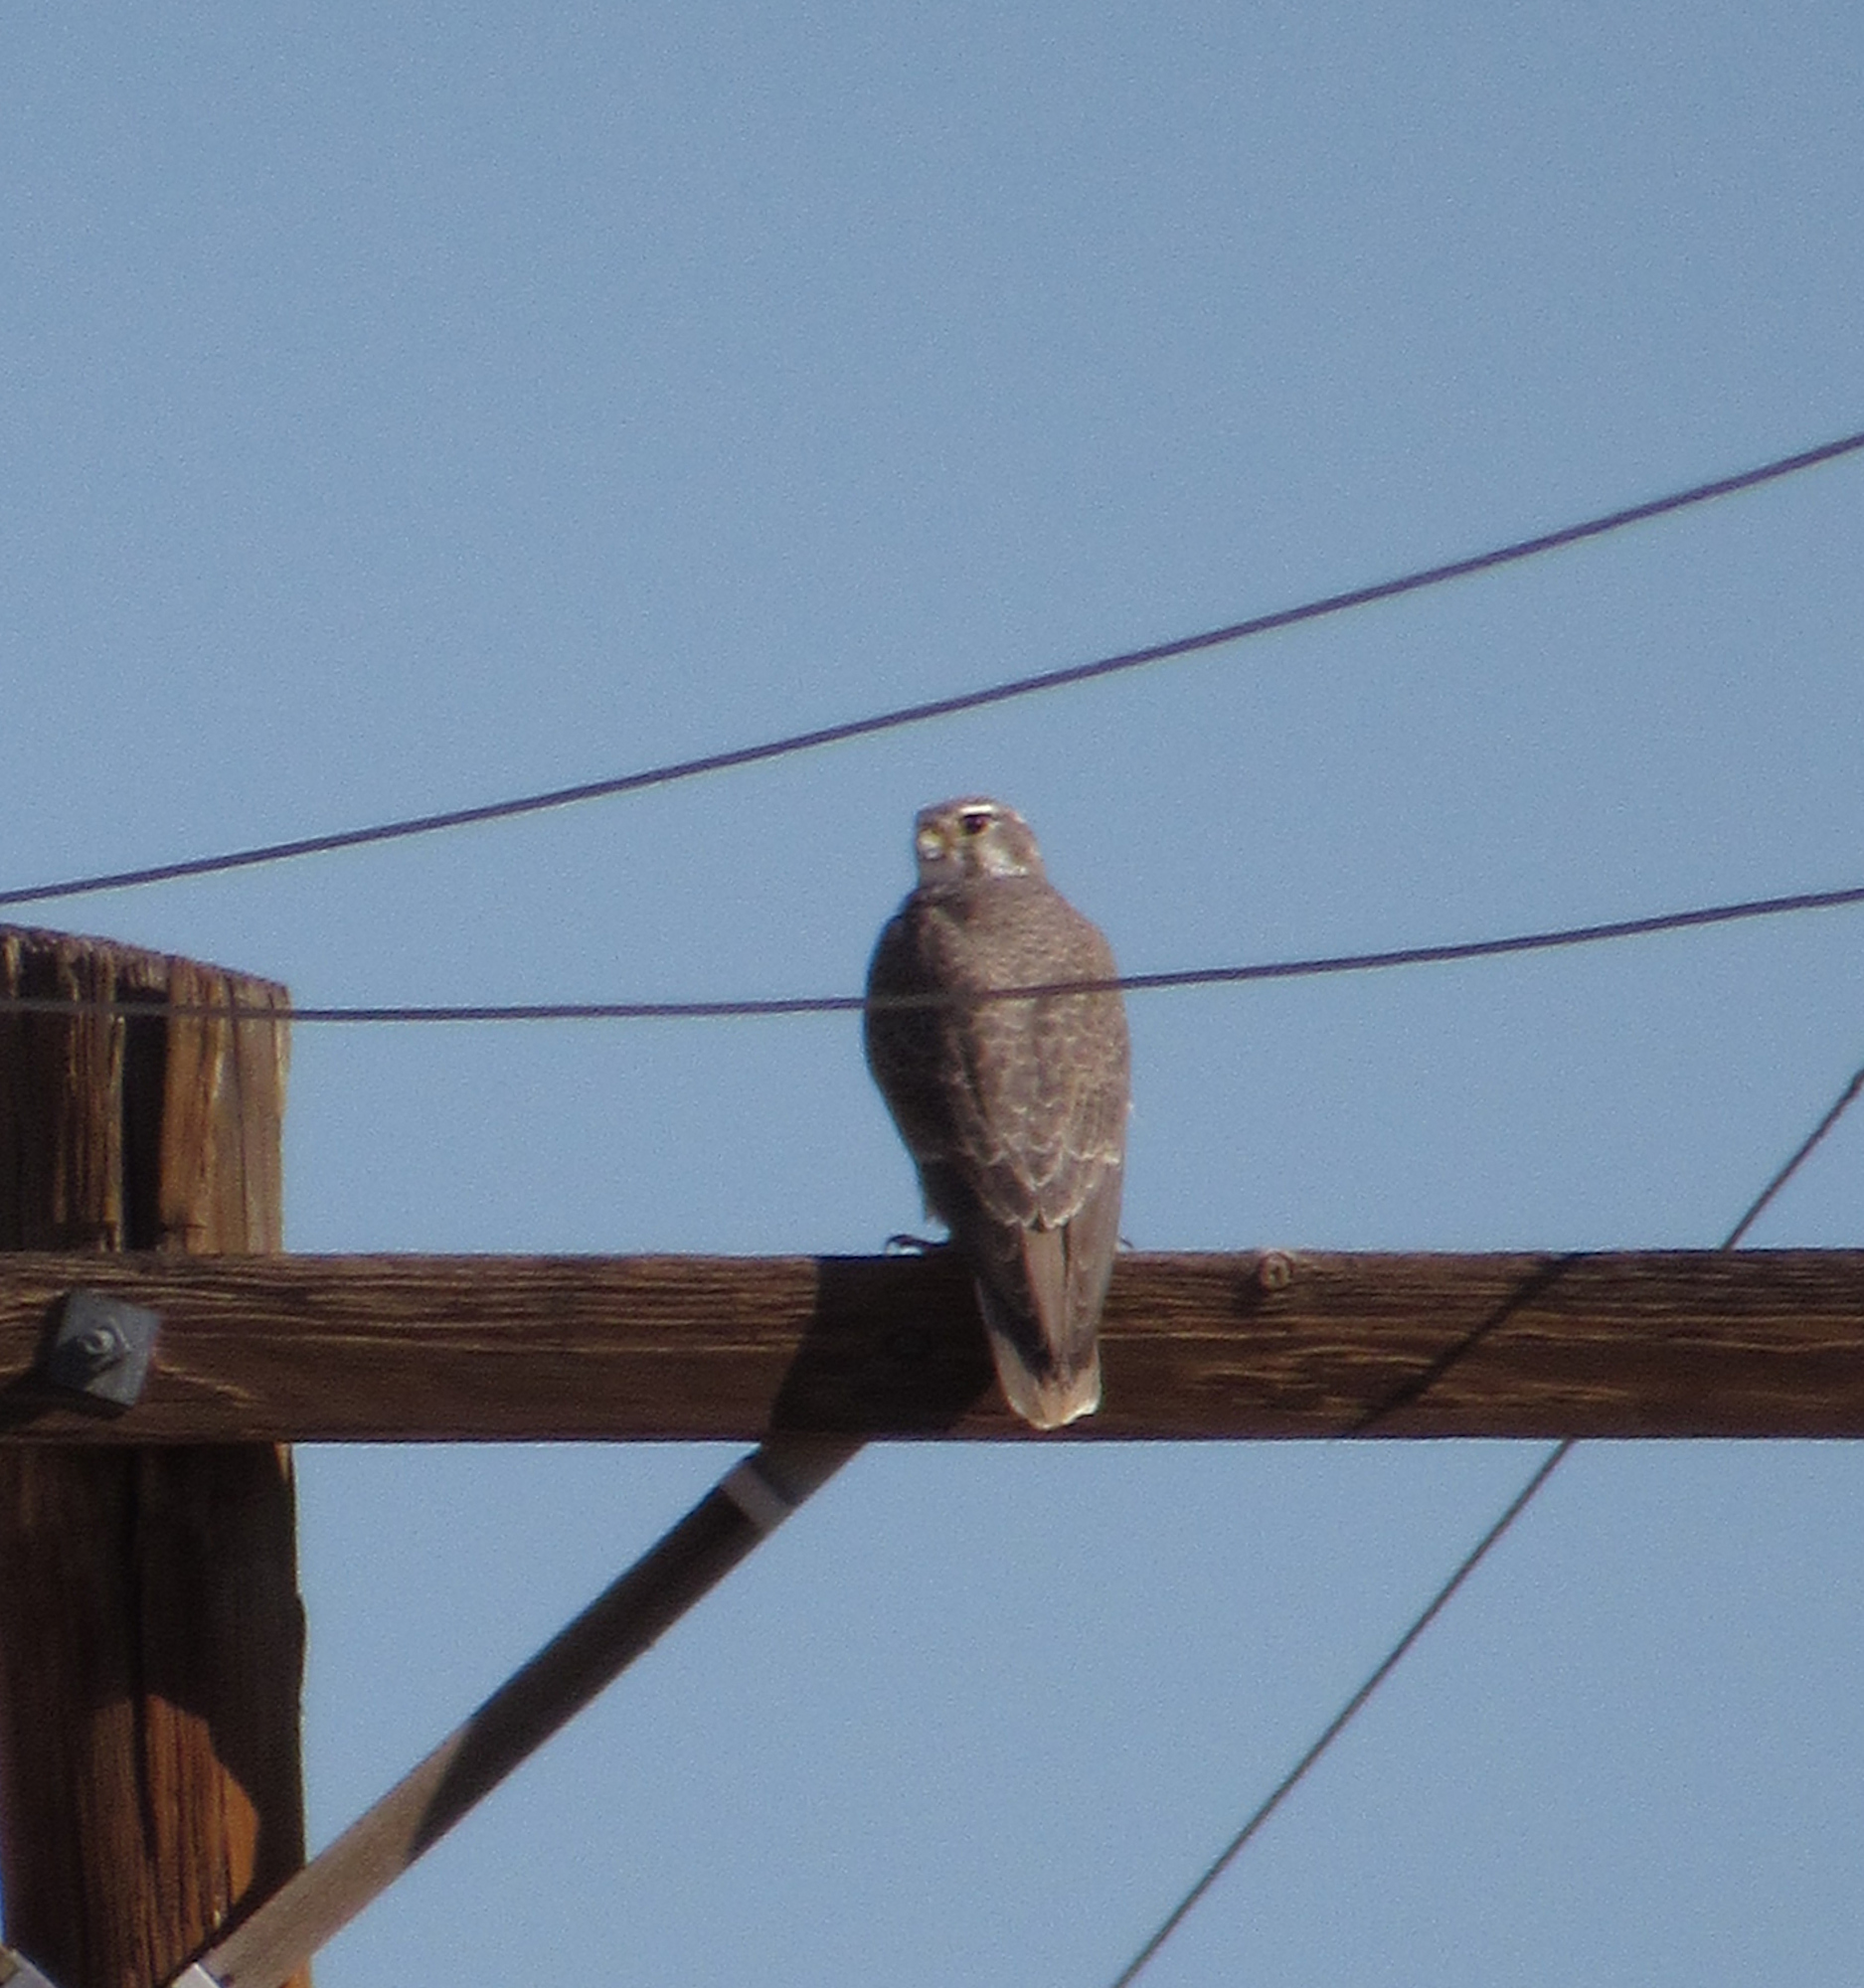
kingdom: Animalia
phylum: Chordata
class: Aves
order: Falconiformes
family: Falconidae
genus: Falco
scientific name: Falco mexicanus
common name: Prairie falcon
